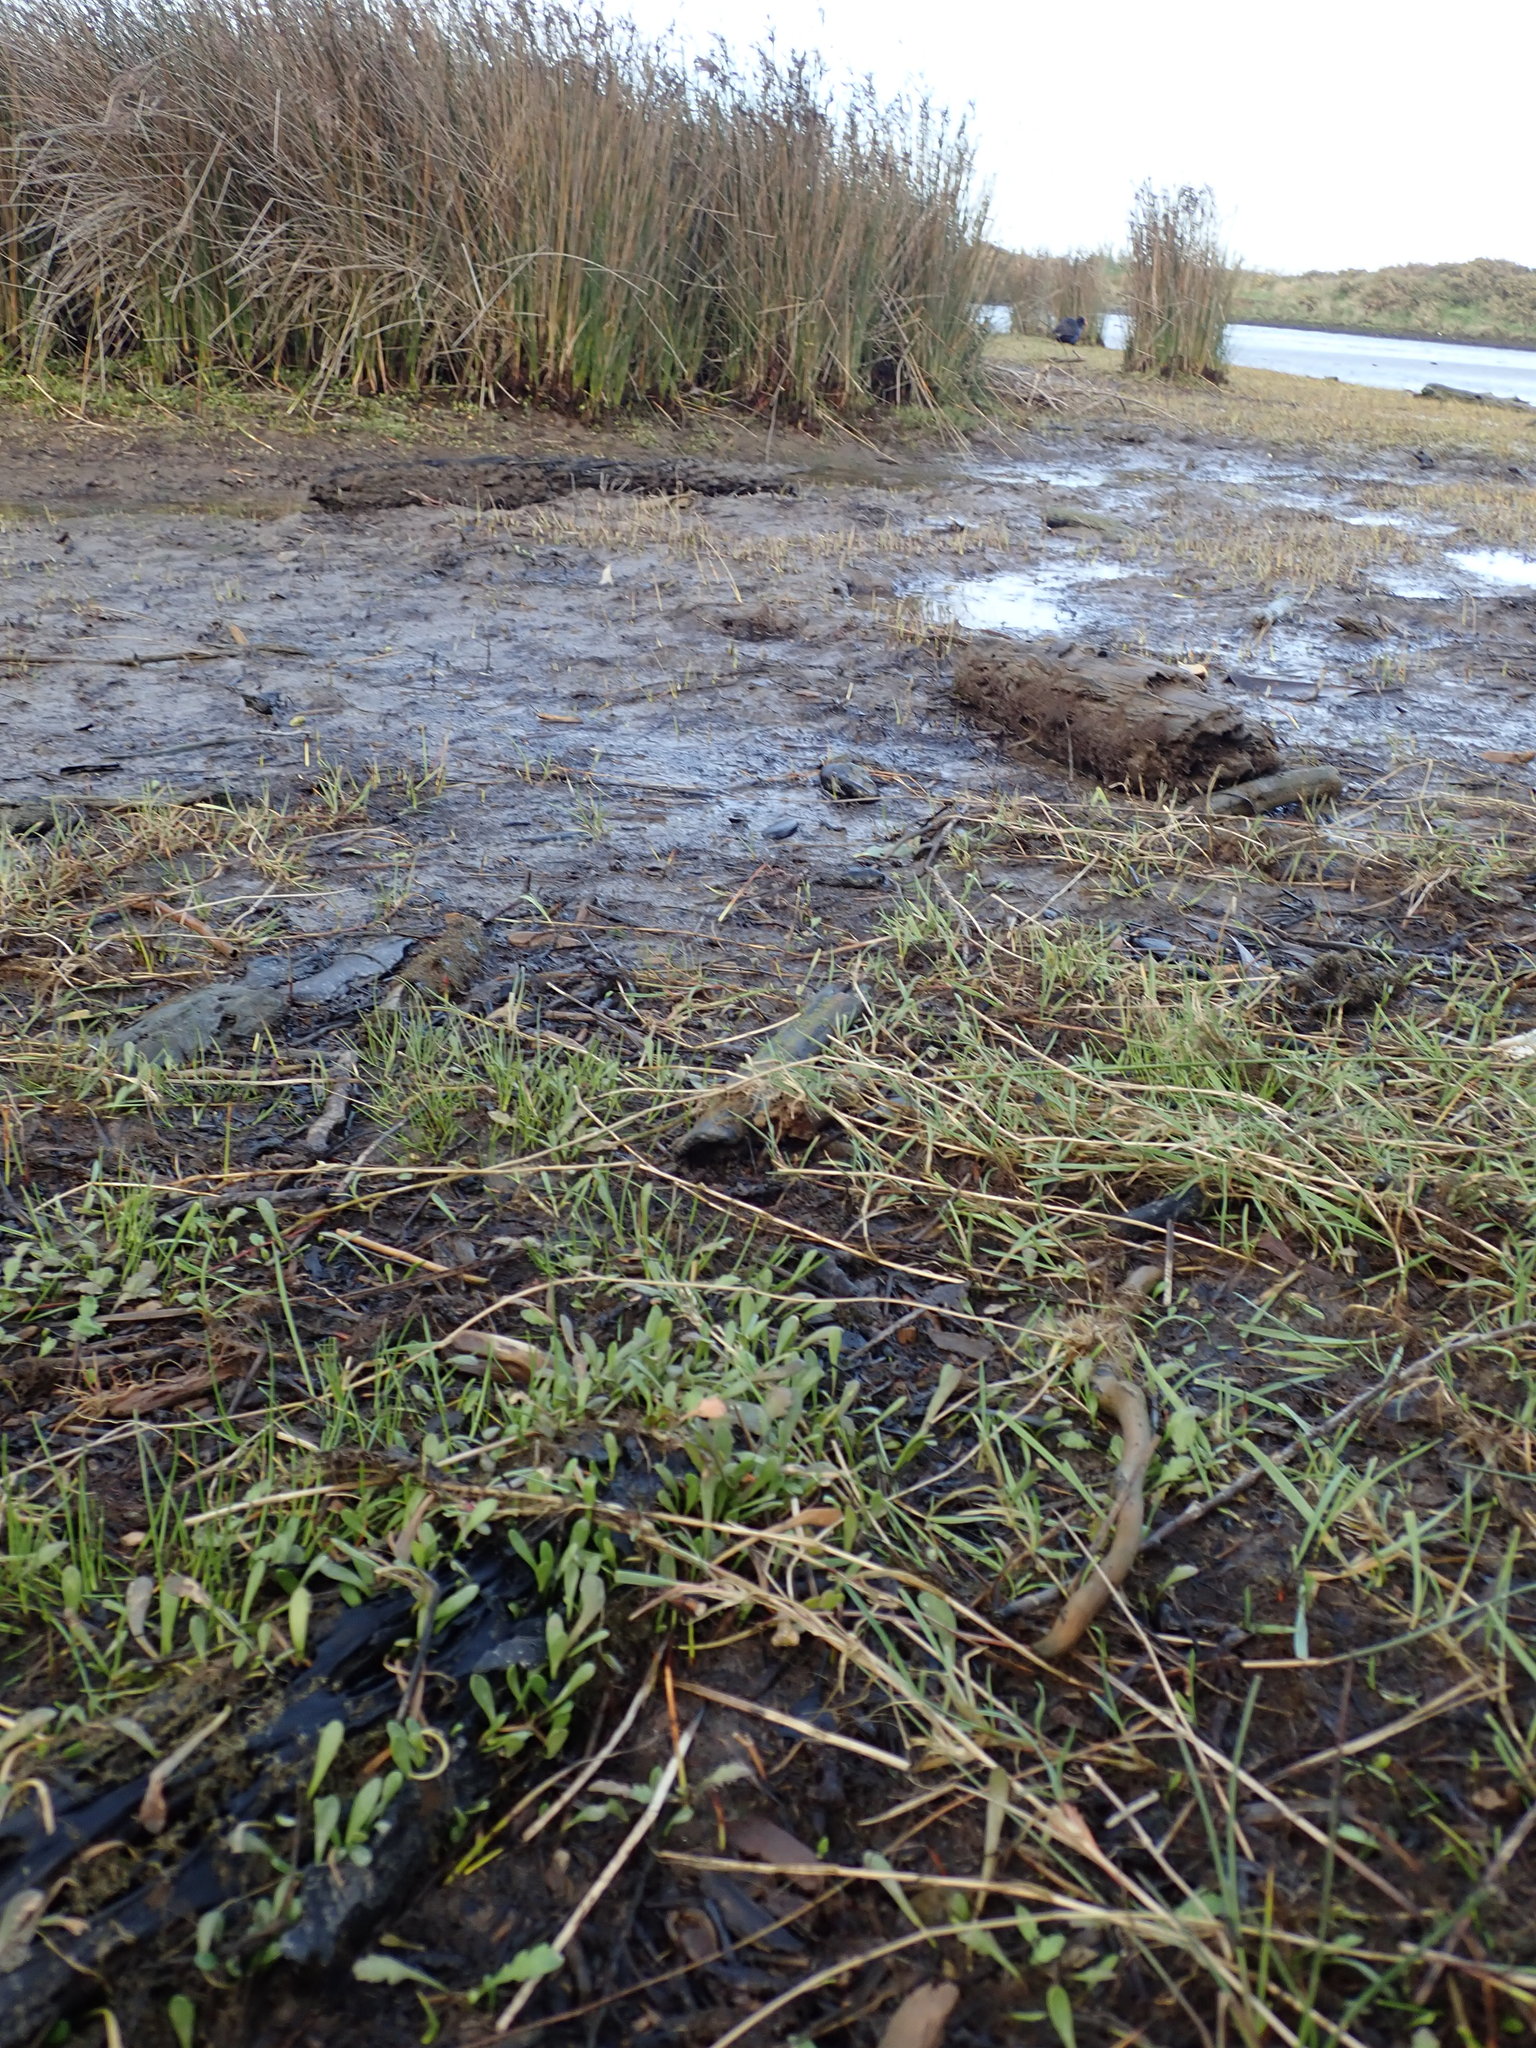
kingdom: Plantae
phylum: Tracheophyta
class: Magnoliopsida
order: Asterales
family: Goodeniaceae
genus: Goodenia
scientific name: Goodenia radicans
